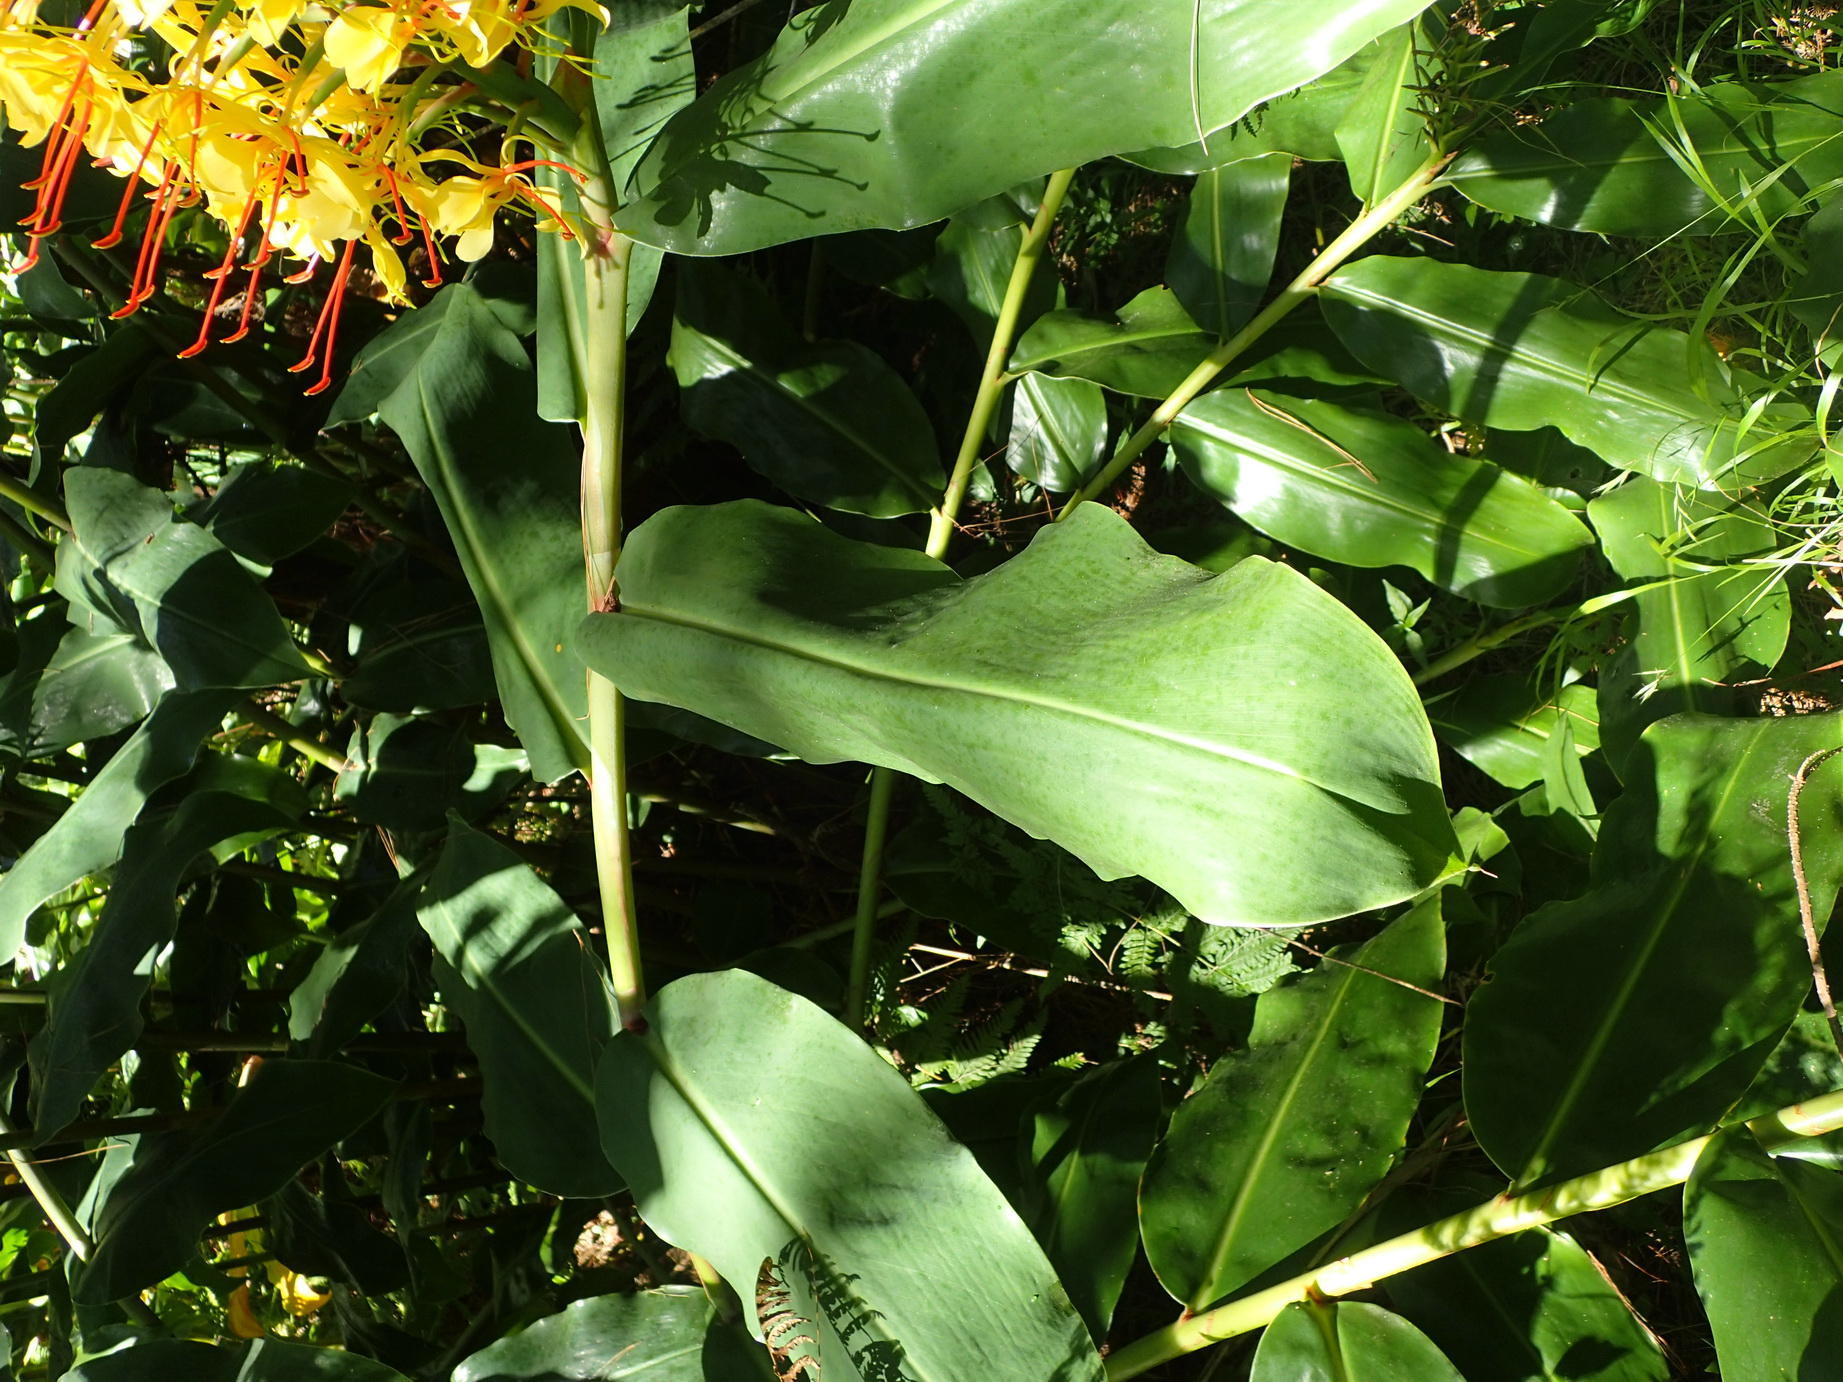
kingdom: Plantae
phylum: Tracheophyta
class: Liliopsida
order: Zingiberales
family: Zingiberaceae
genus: Hedychium
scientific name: Hedychium gardnerianum
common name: Himalayan ginger
